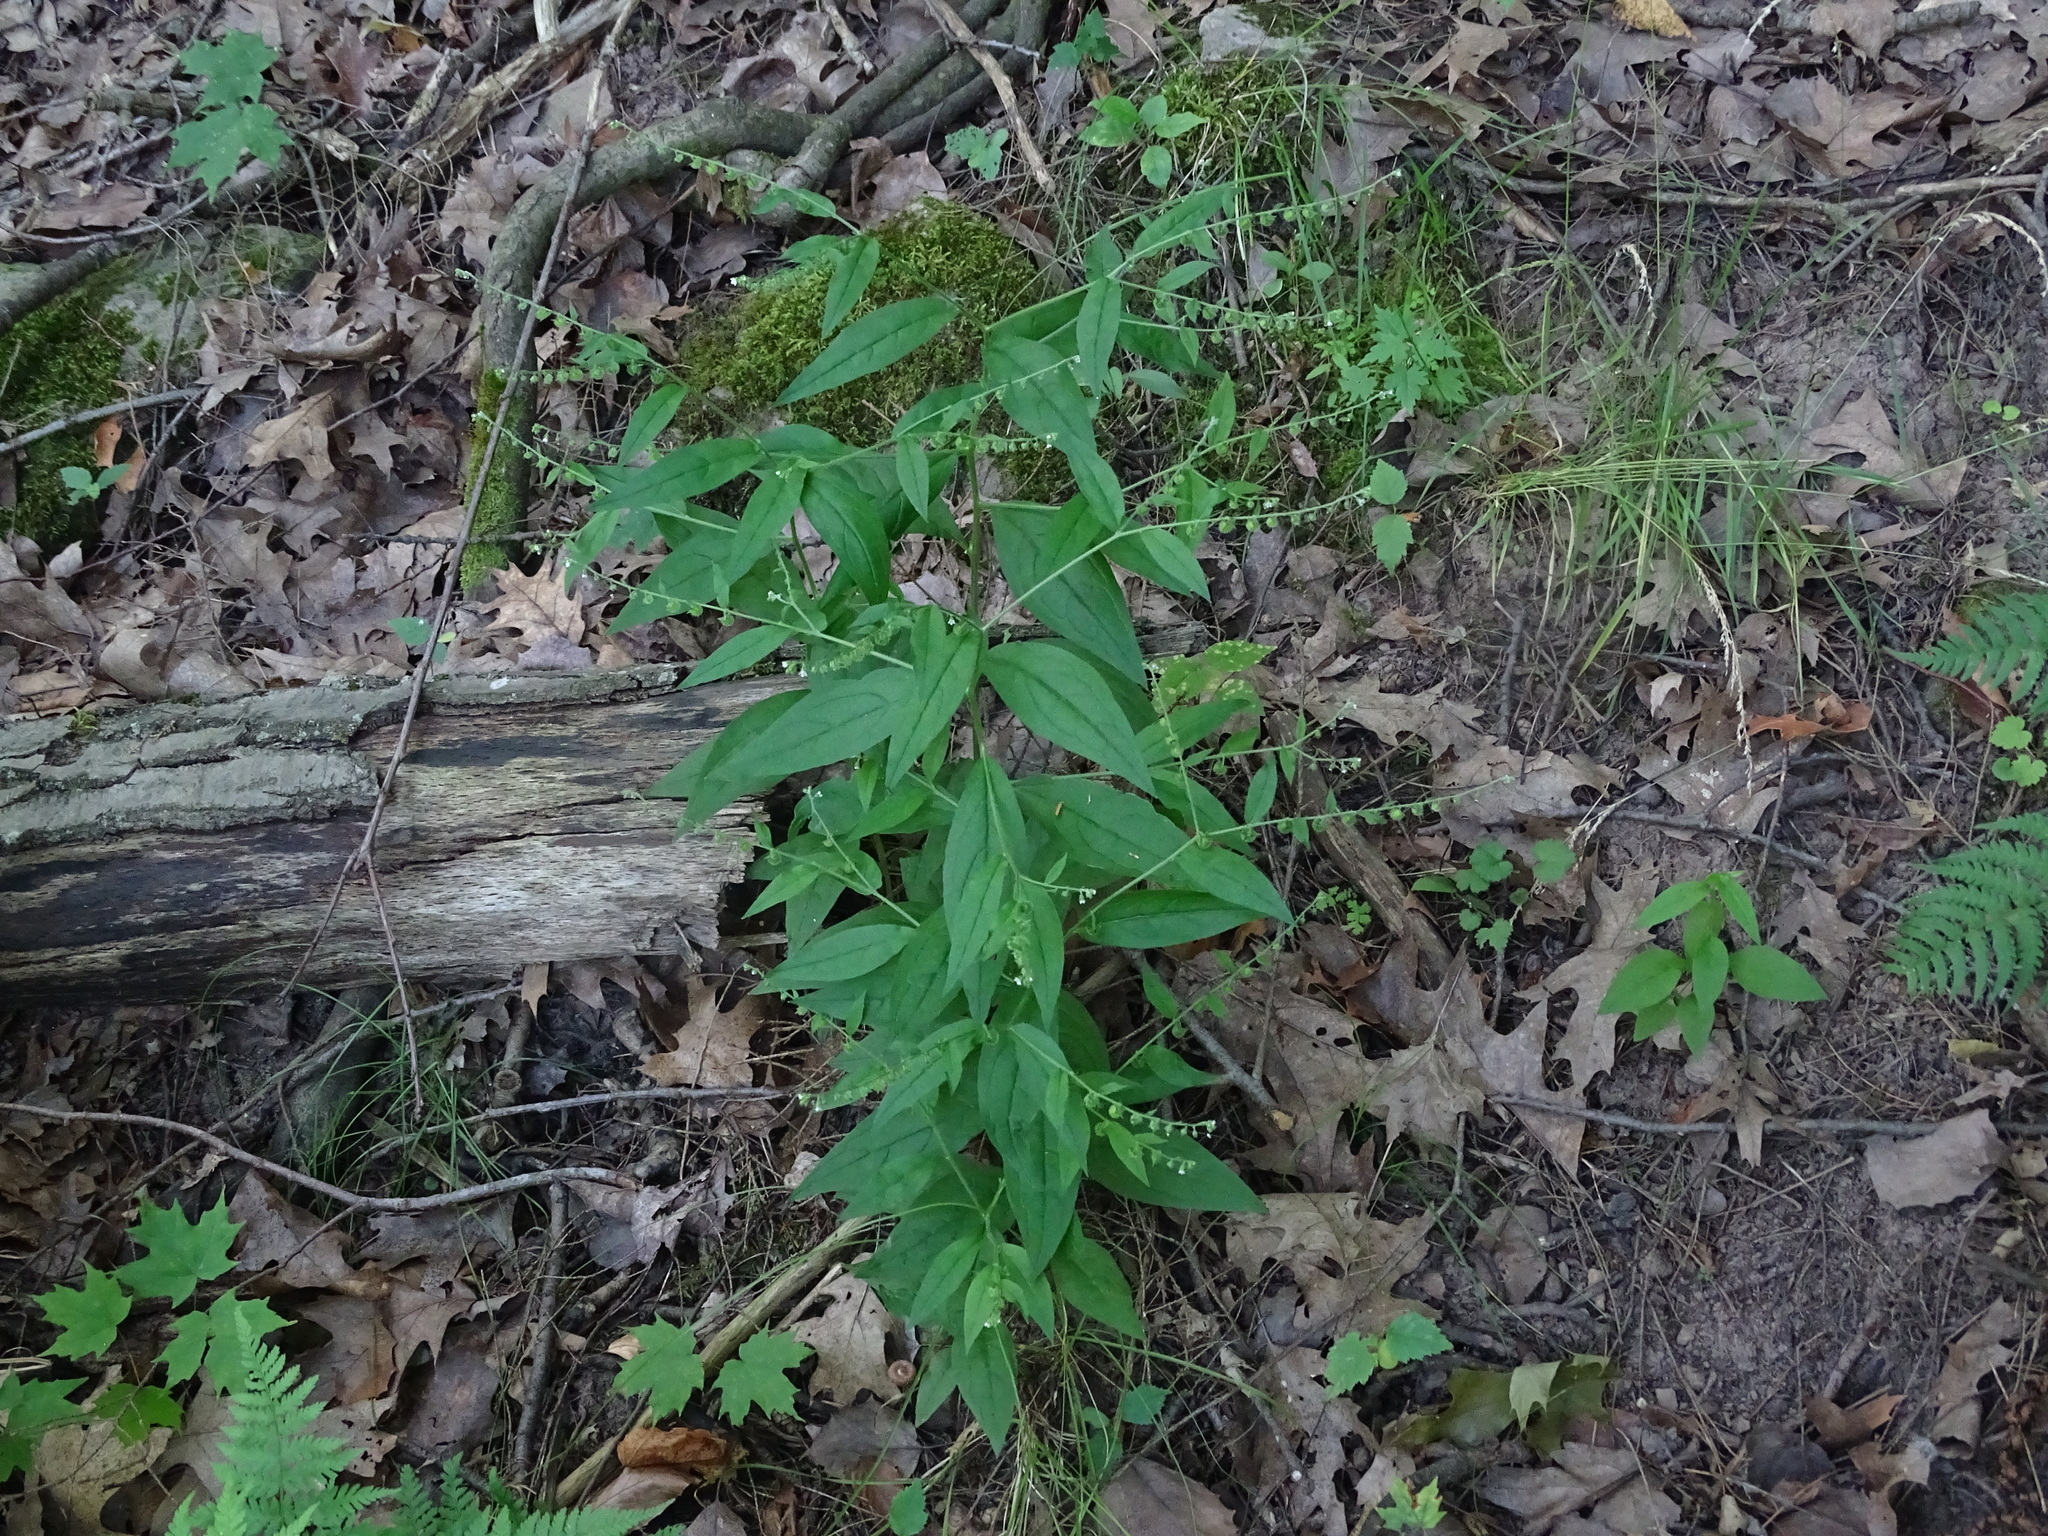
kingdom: Plantae
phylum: Tracheophyta
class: Magnoliopsida
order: Boraginales
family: Boraginaceae
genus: Hackelia
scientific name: Hackelia virginiana
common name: Beggar's-lice
